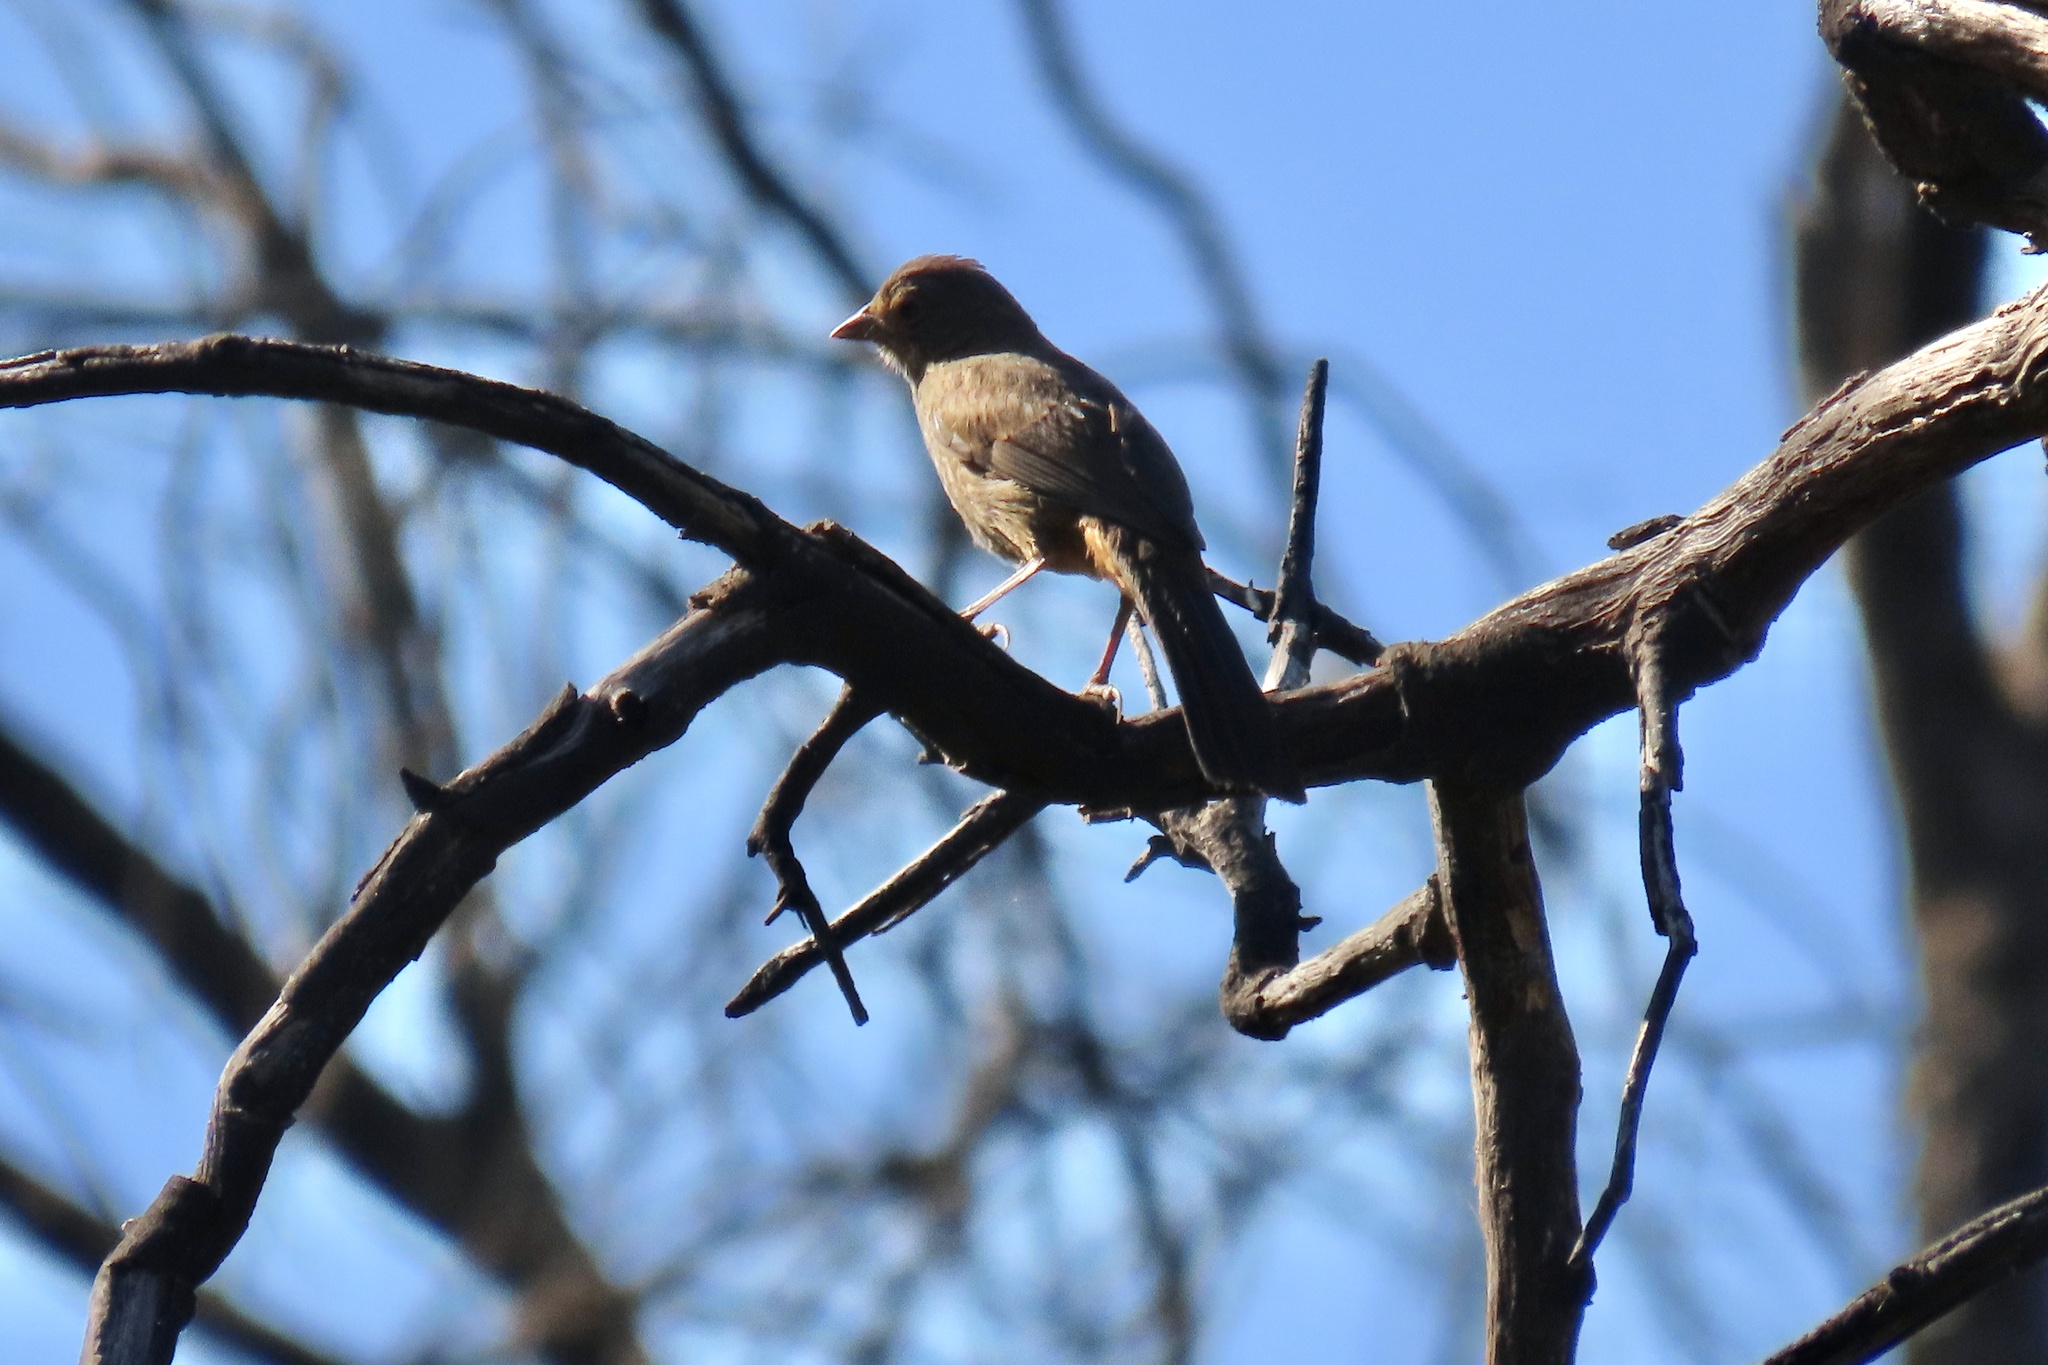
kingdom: Animalia
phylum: Chordata
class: Aves
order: Passeriformes
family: Passerellidae
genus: Melozone
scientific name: Melozone crissalis
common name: California towhee
